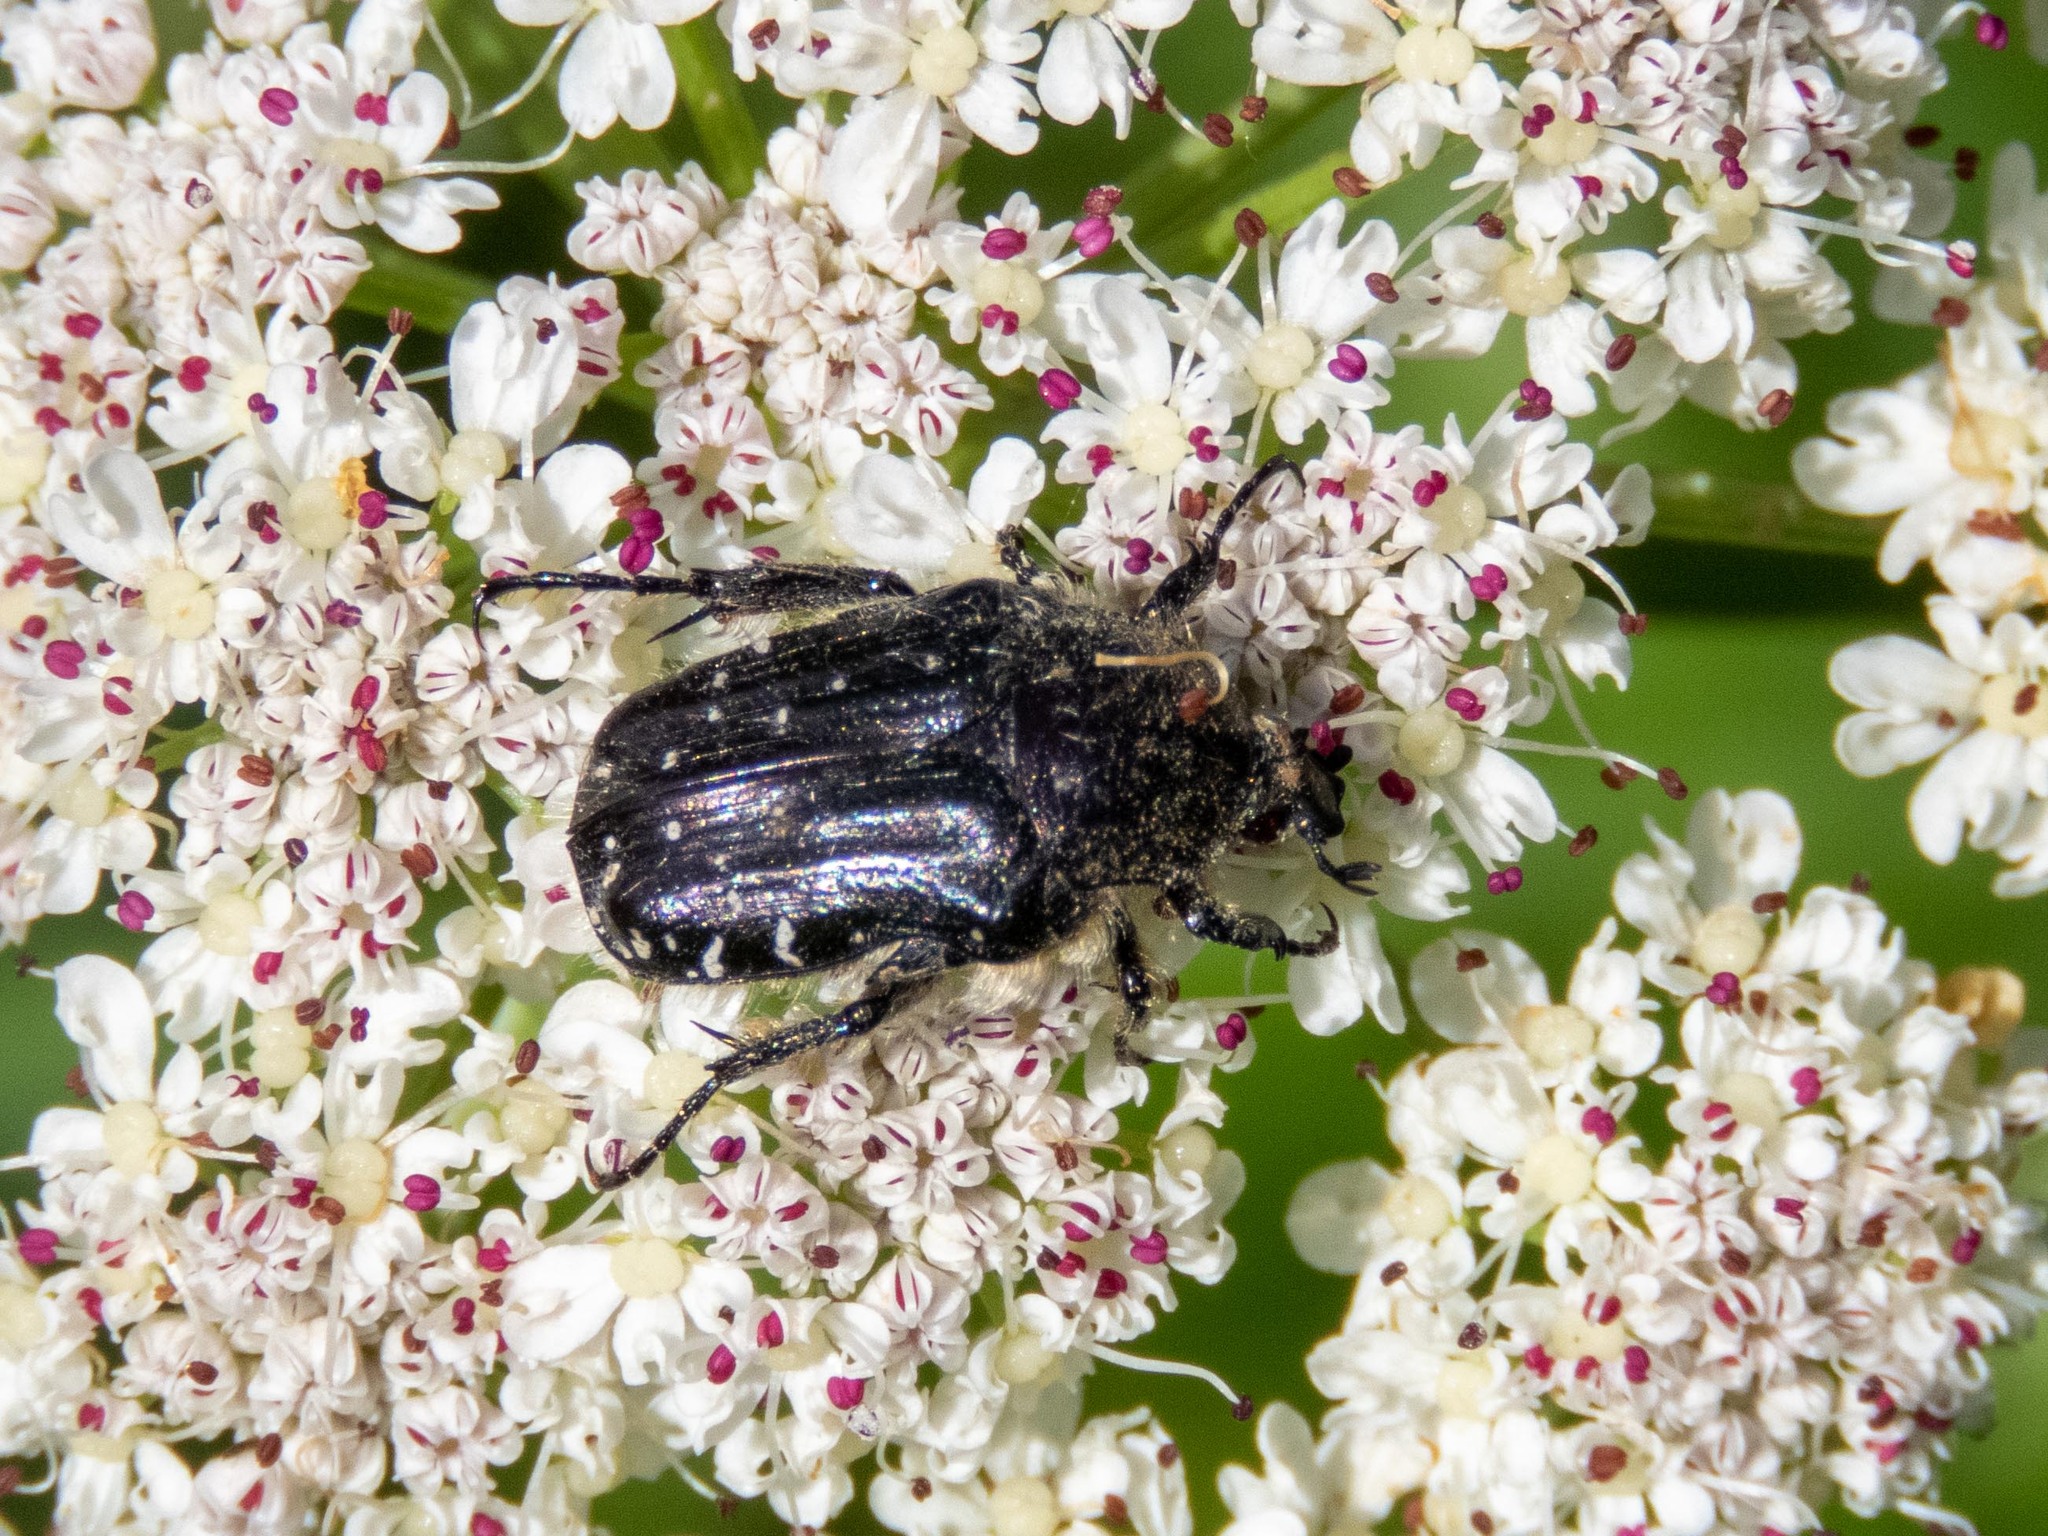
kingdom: Animalia
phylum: Arthropoda
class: Insecta
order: Coleoptera
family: Scarabaeidae
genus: Oxythyrea
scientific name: Oxythyrea funesta
